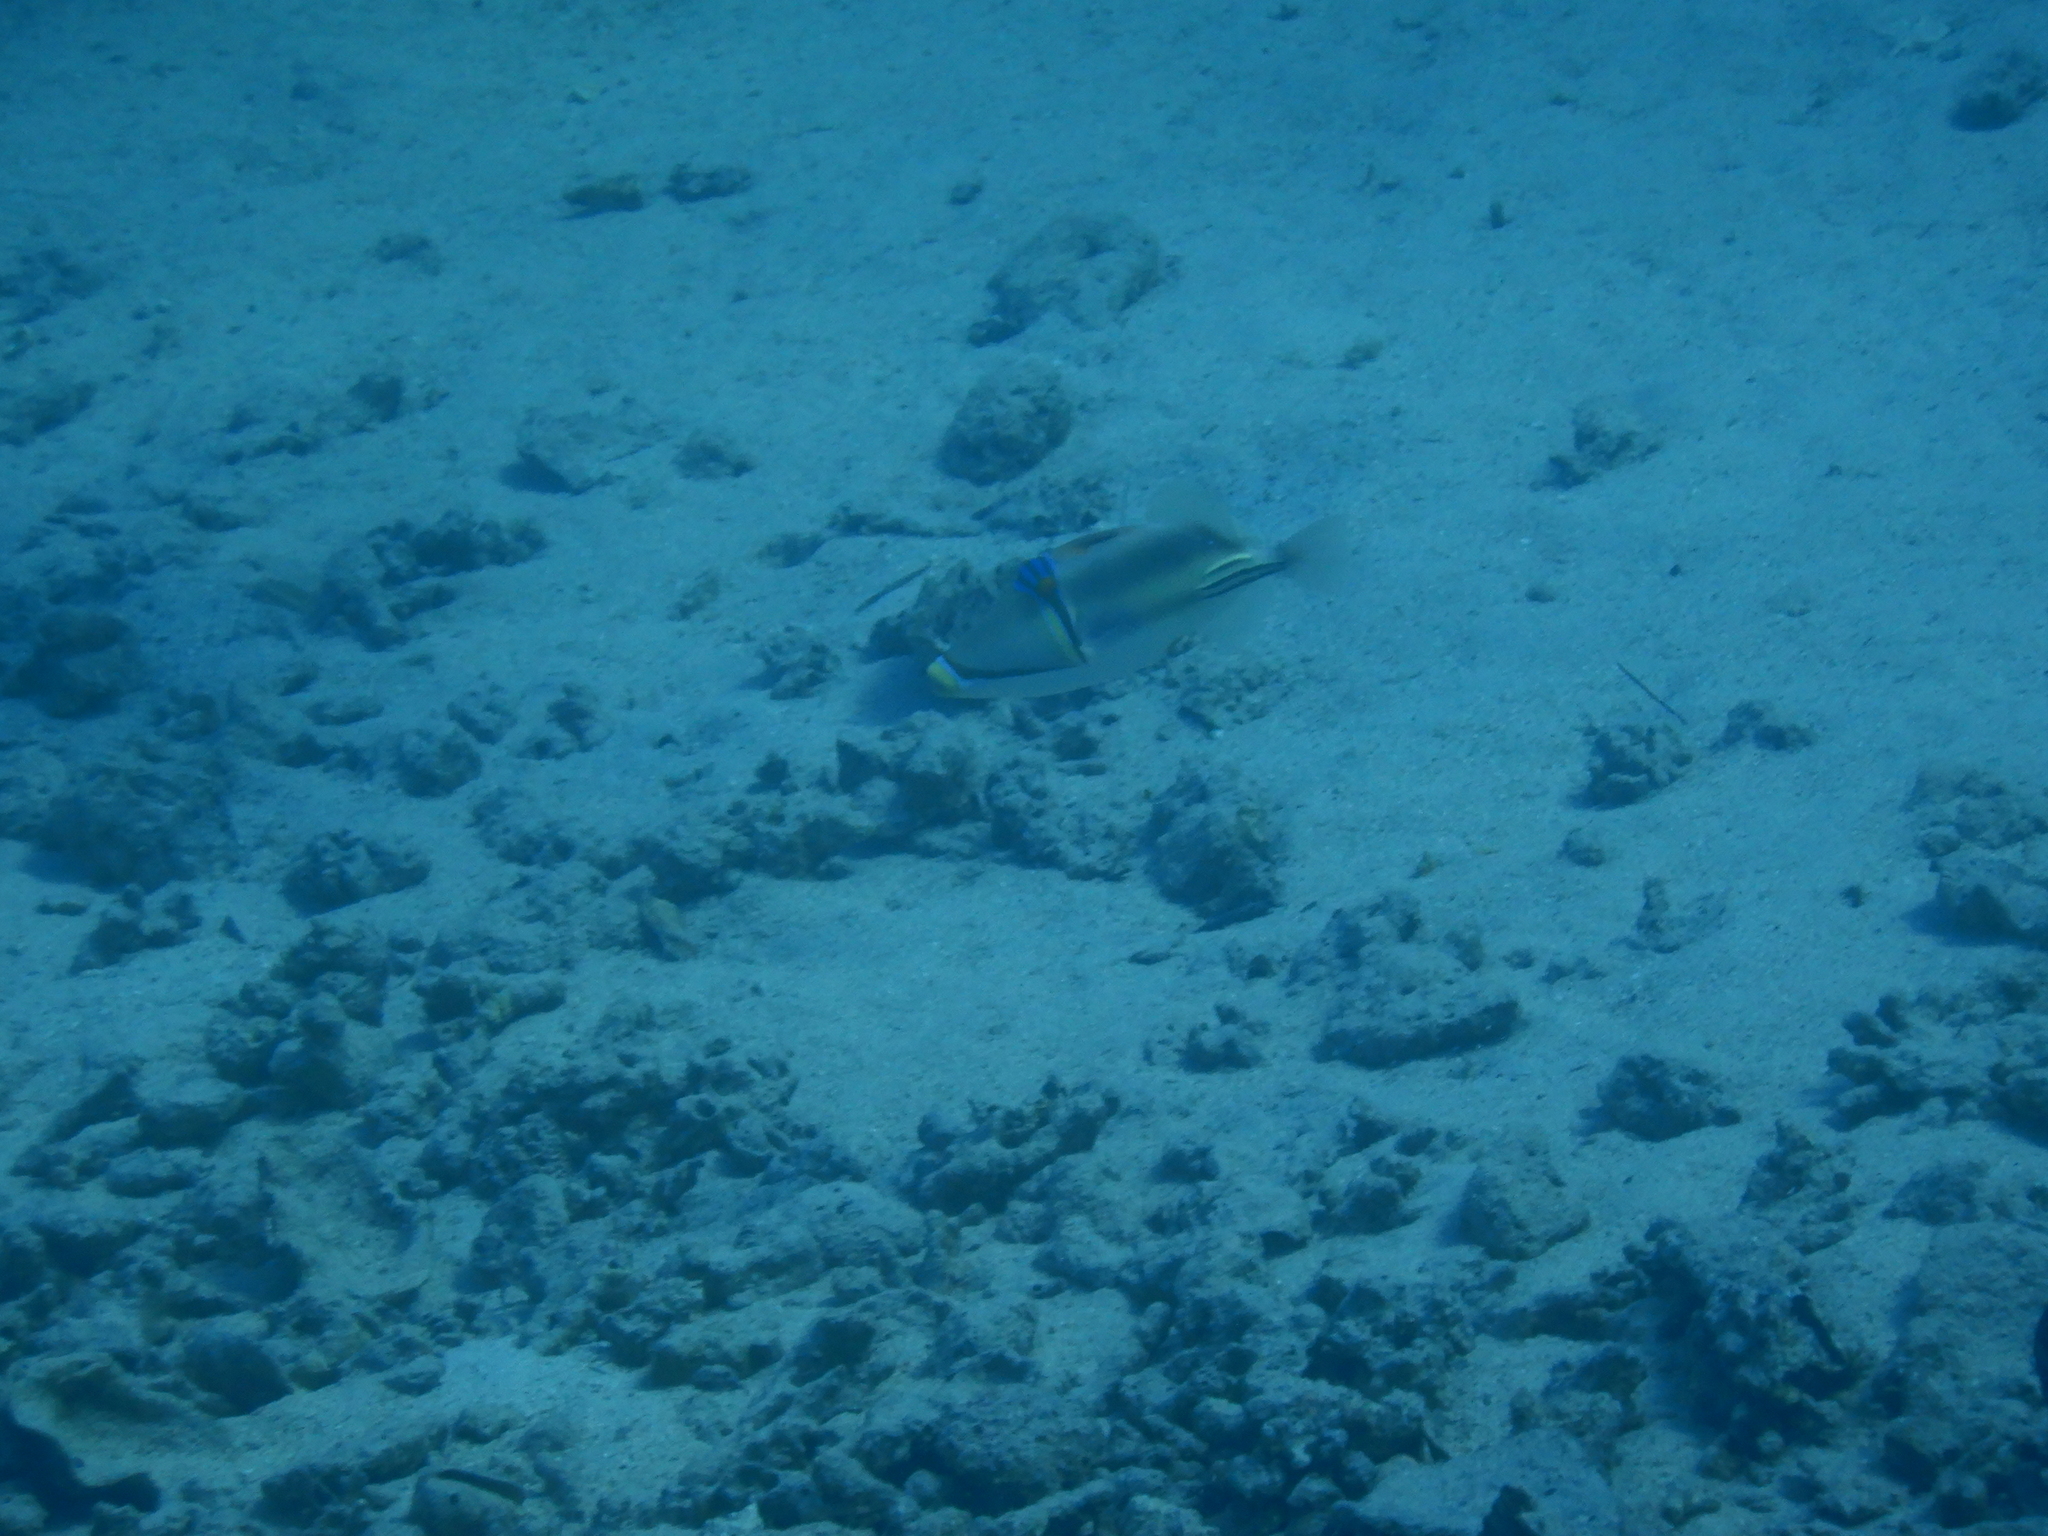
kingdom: Animalia
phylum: Chordata
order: Tetraodontiformes
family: Balistidae
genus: Rhinecanthus
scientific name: Rhinecanthus assasi
